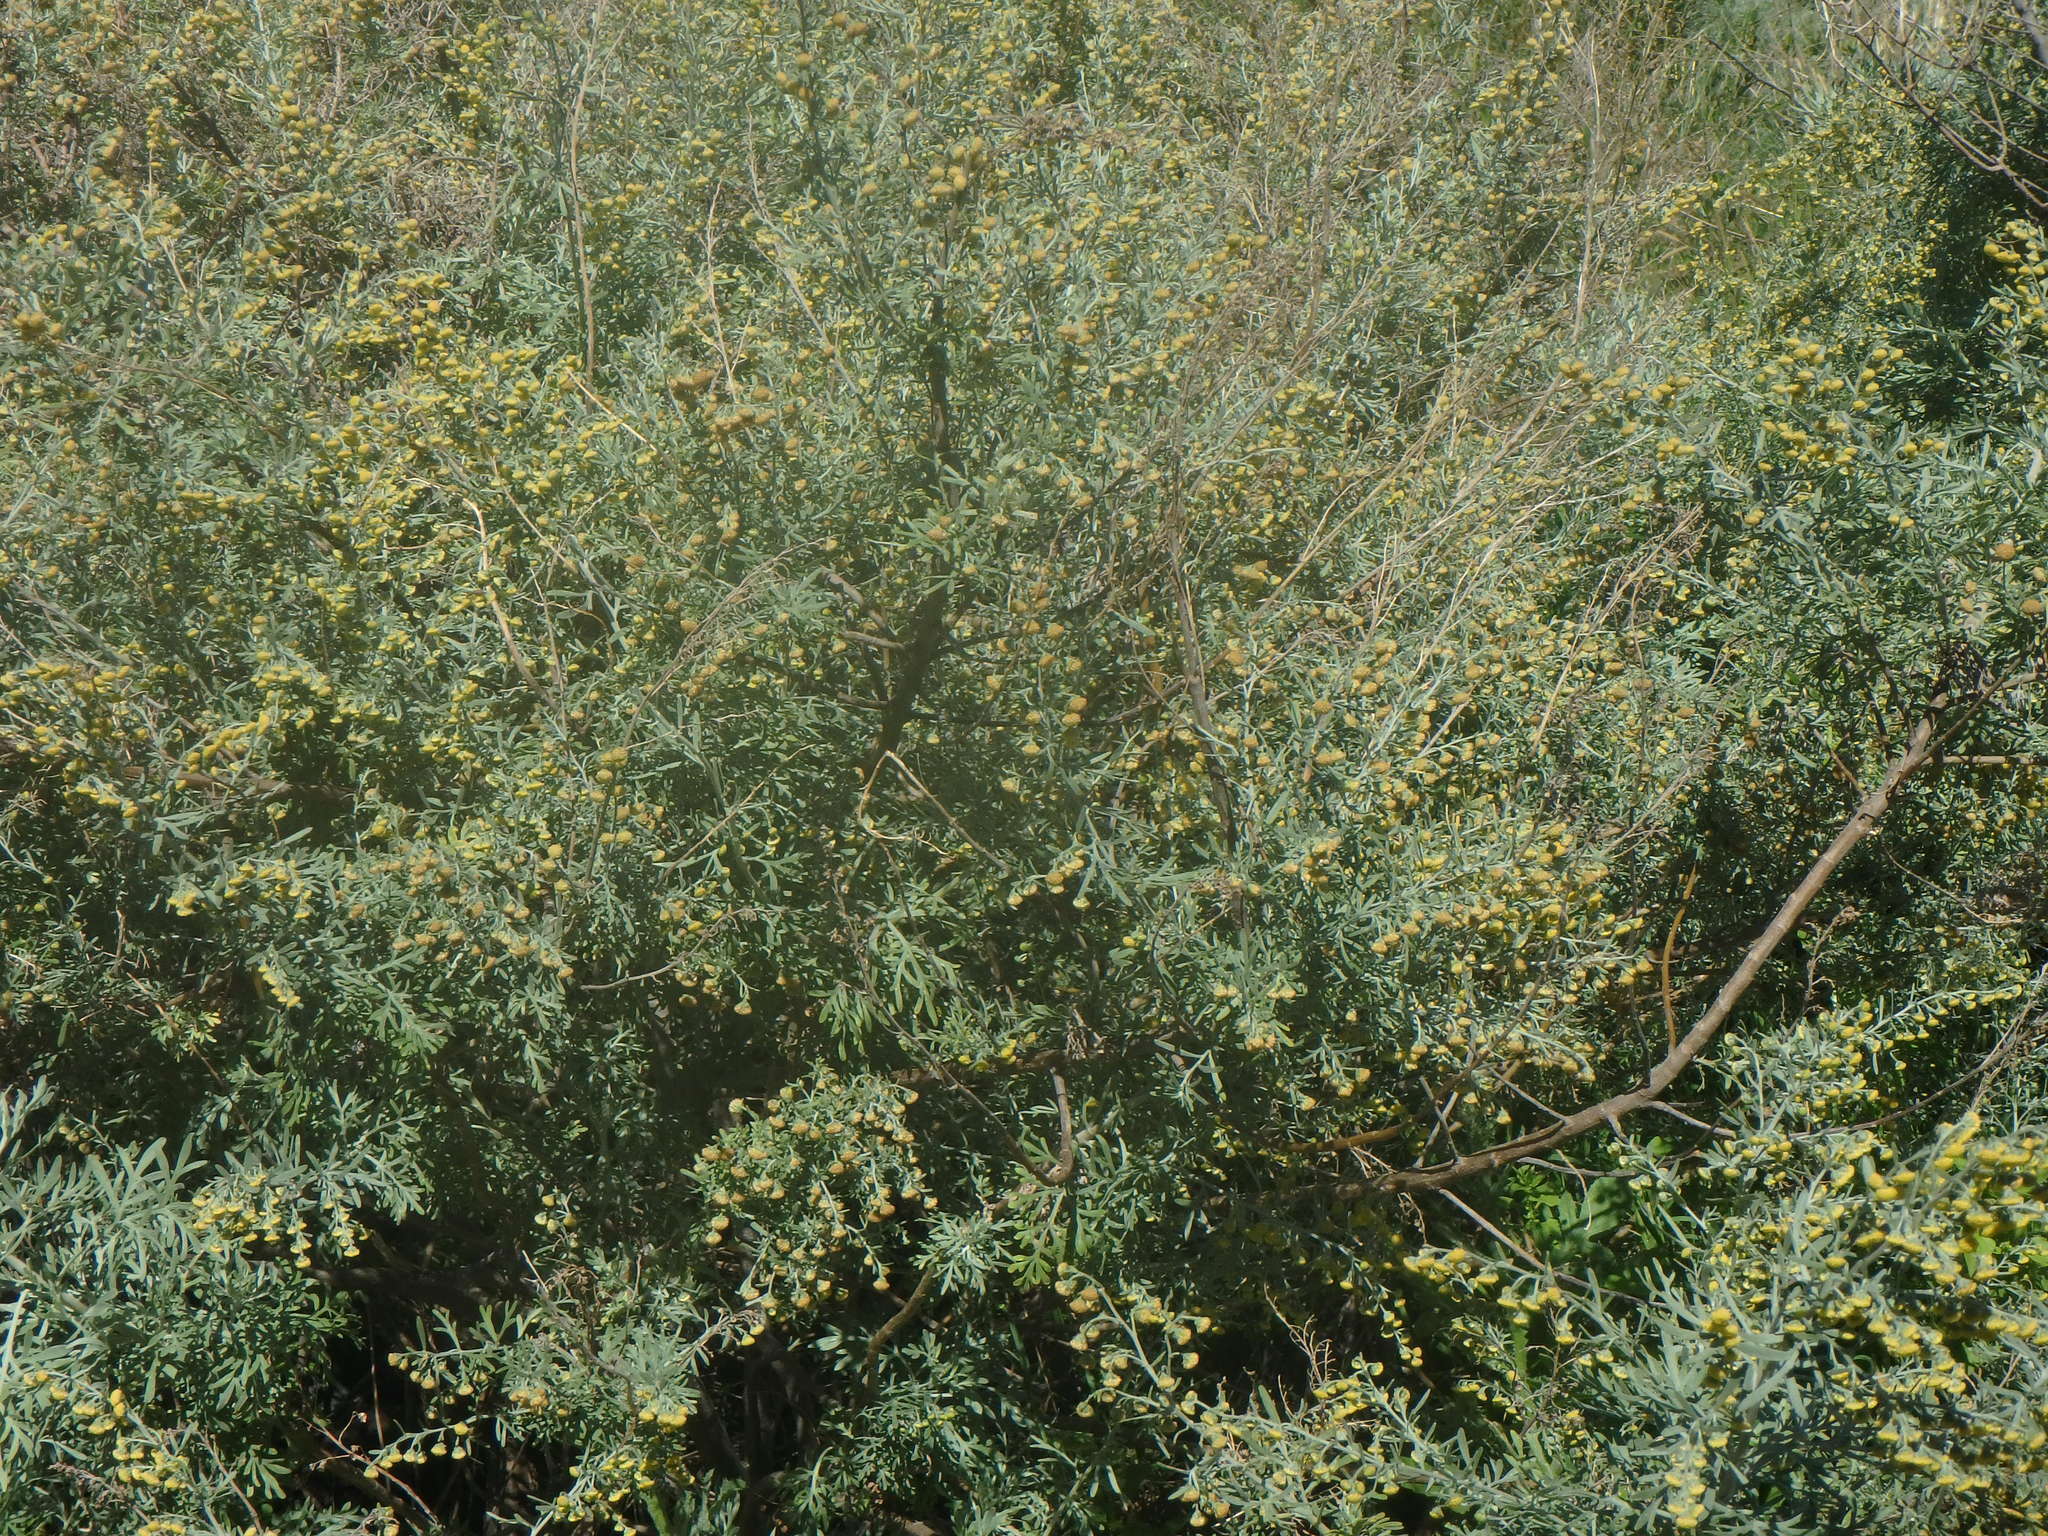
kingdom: Plantae
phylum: Tracheophyta
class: Magnoliopsida
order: Asterales
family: Asteraceae
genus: Artemisia
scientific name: Artemisia thuscula
